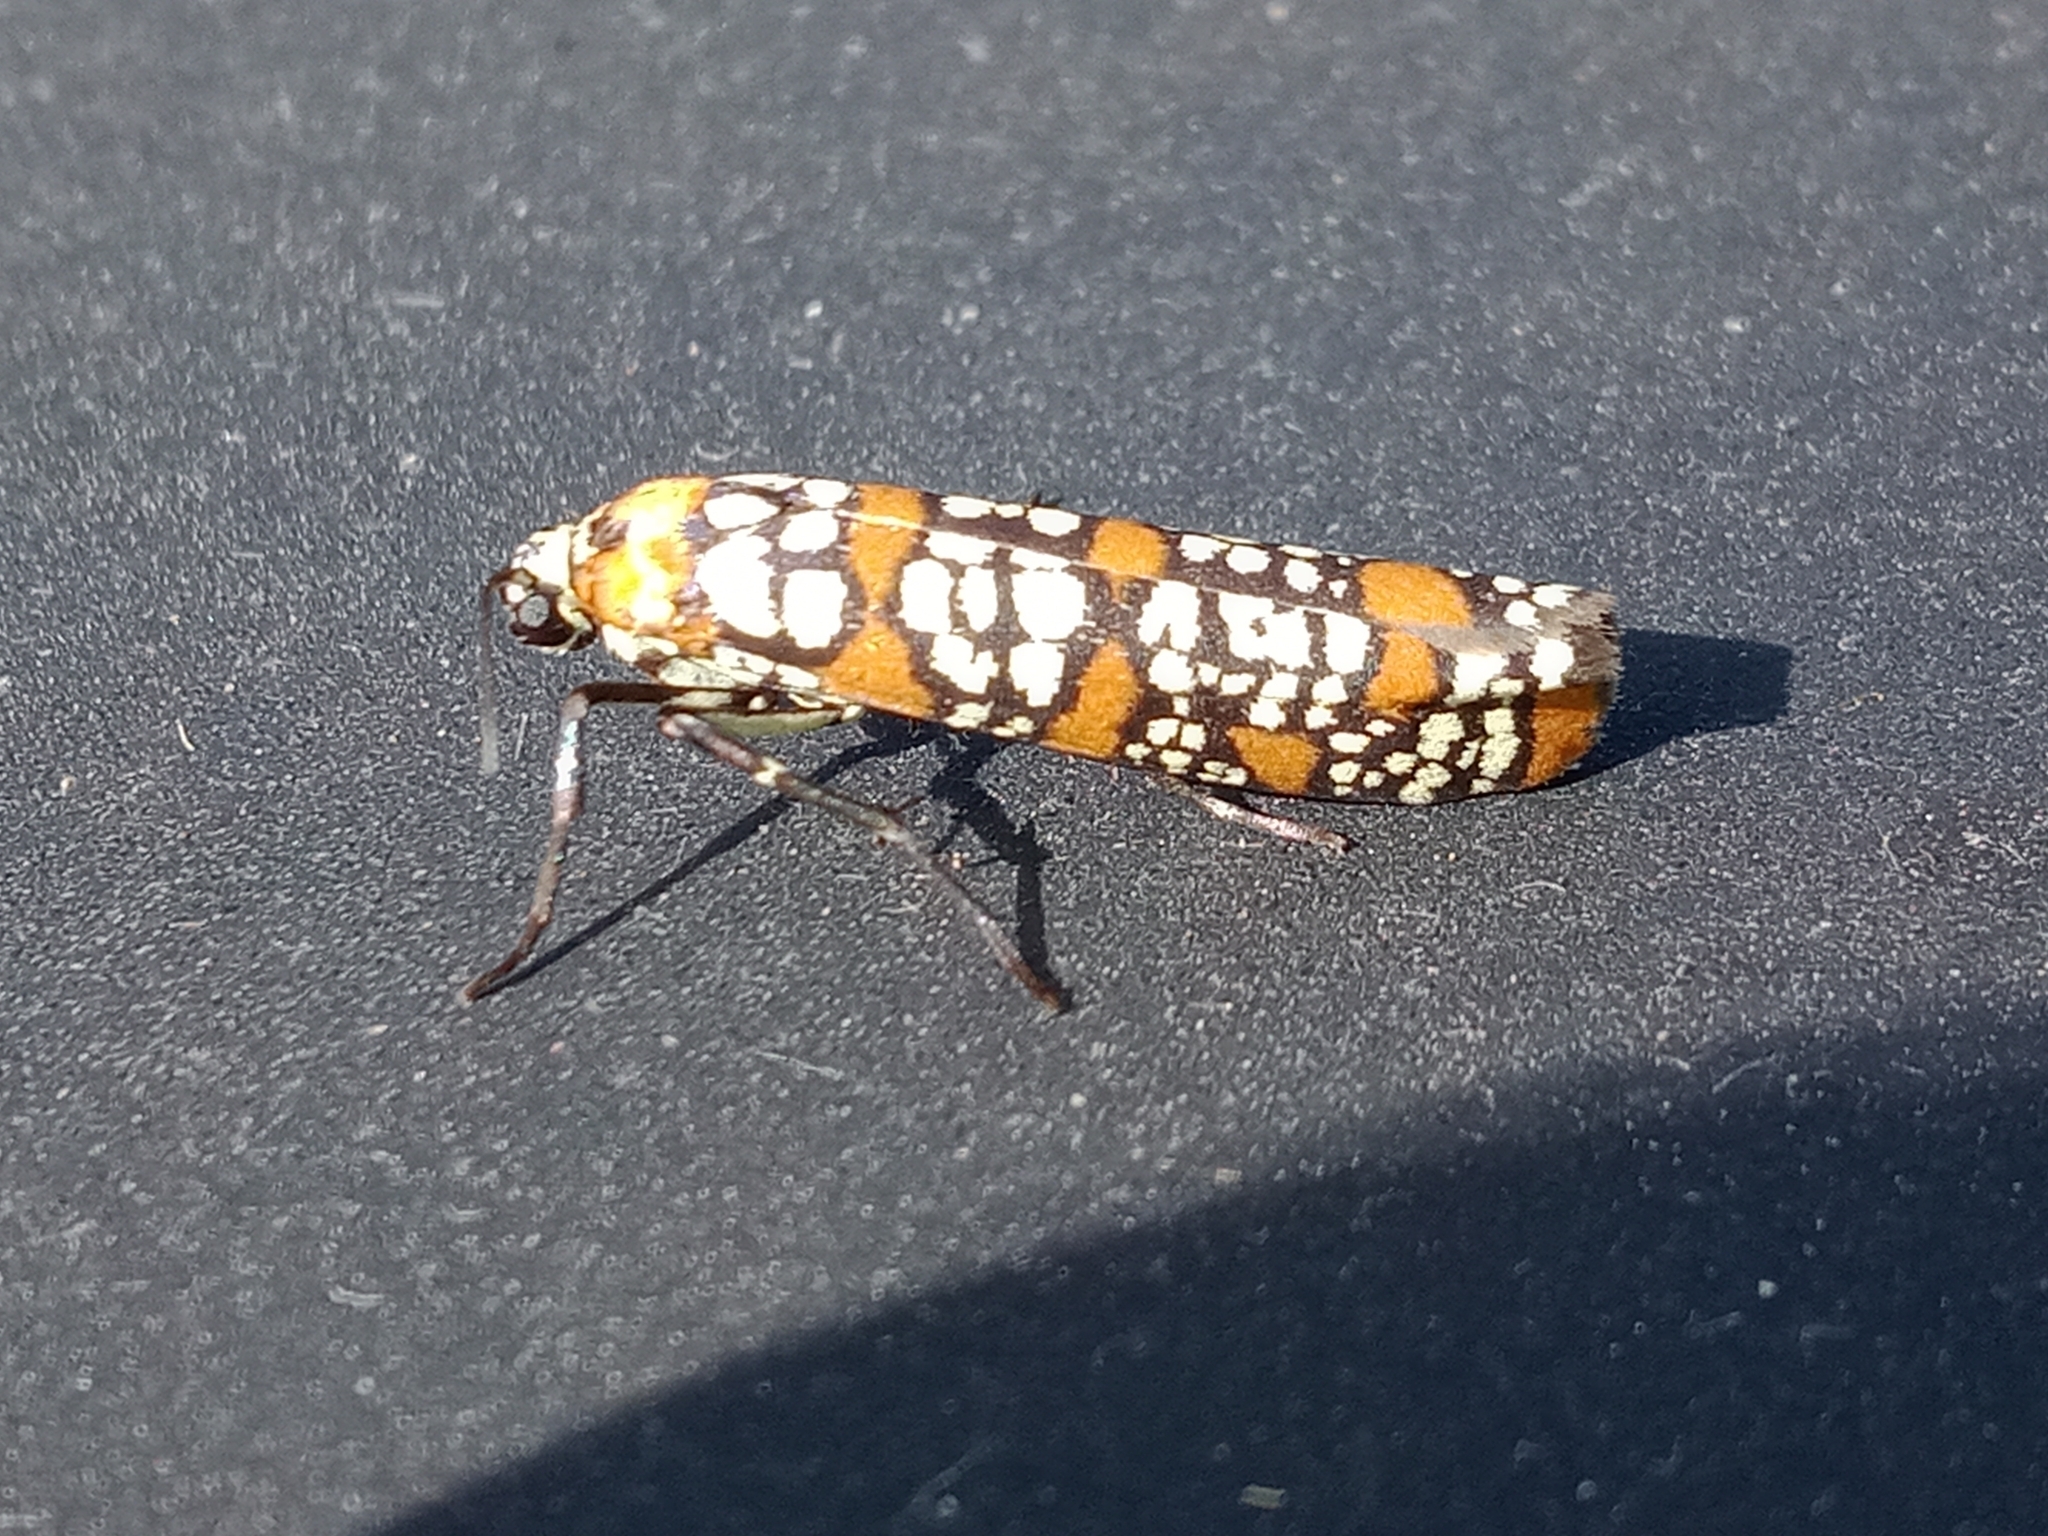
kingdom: Animalia
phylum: Arthropoda
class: Insecta
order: Lepidoptera
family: Attevidae
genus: Atteva
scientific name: Atteva punctella
